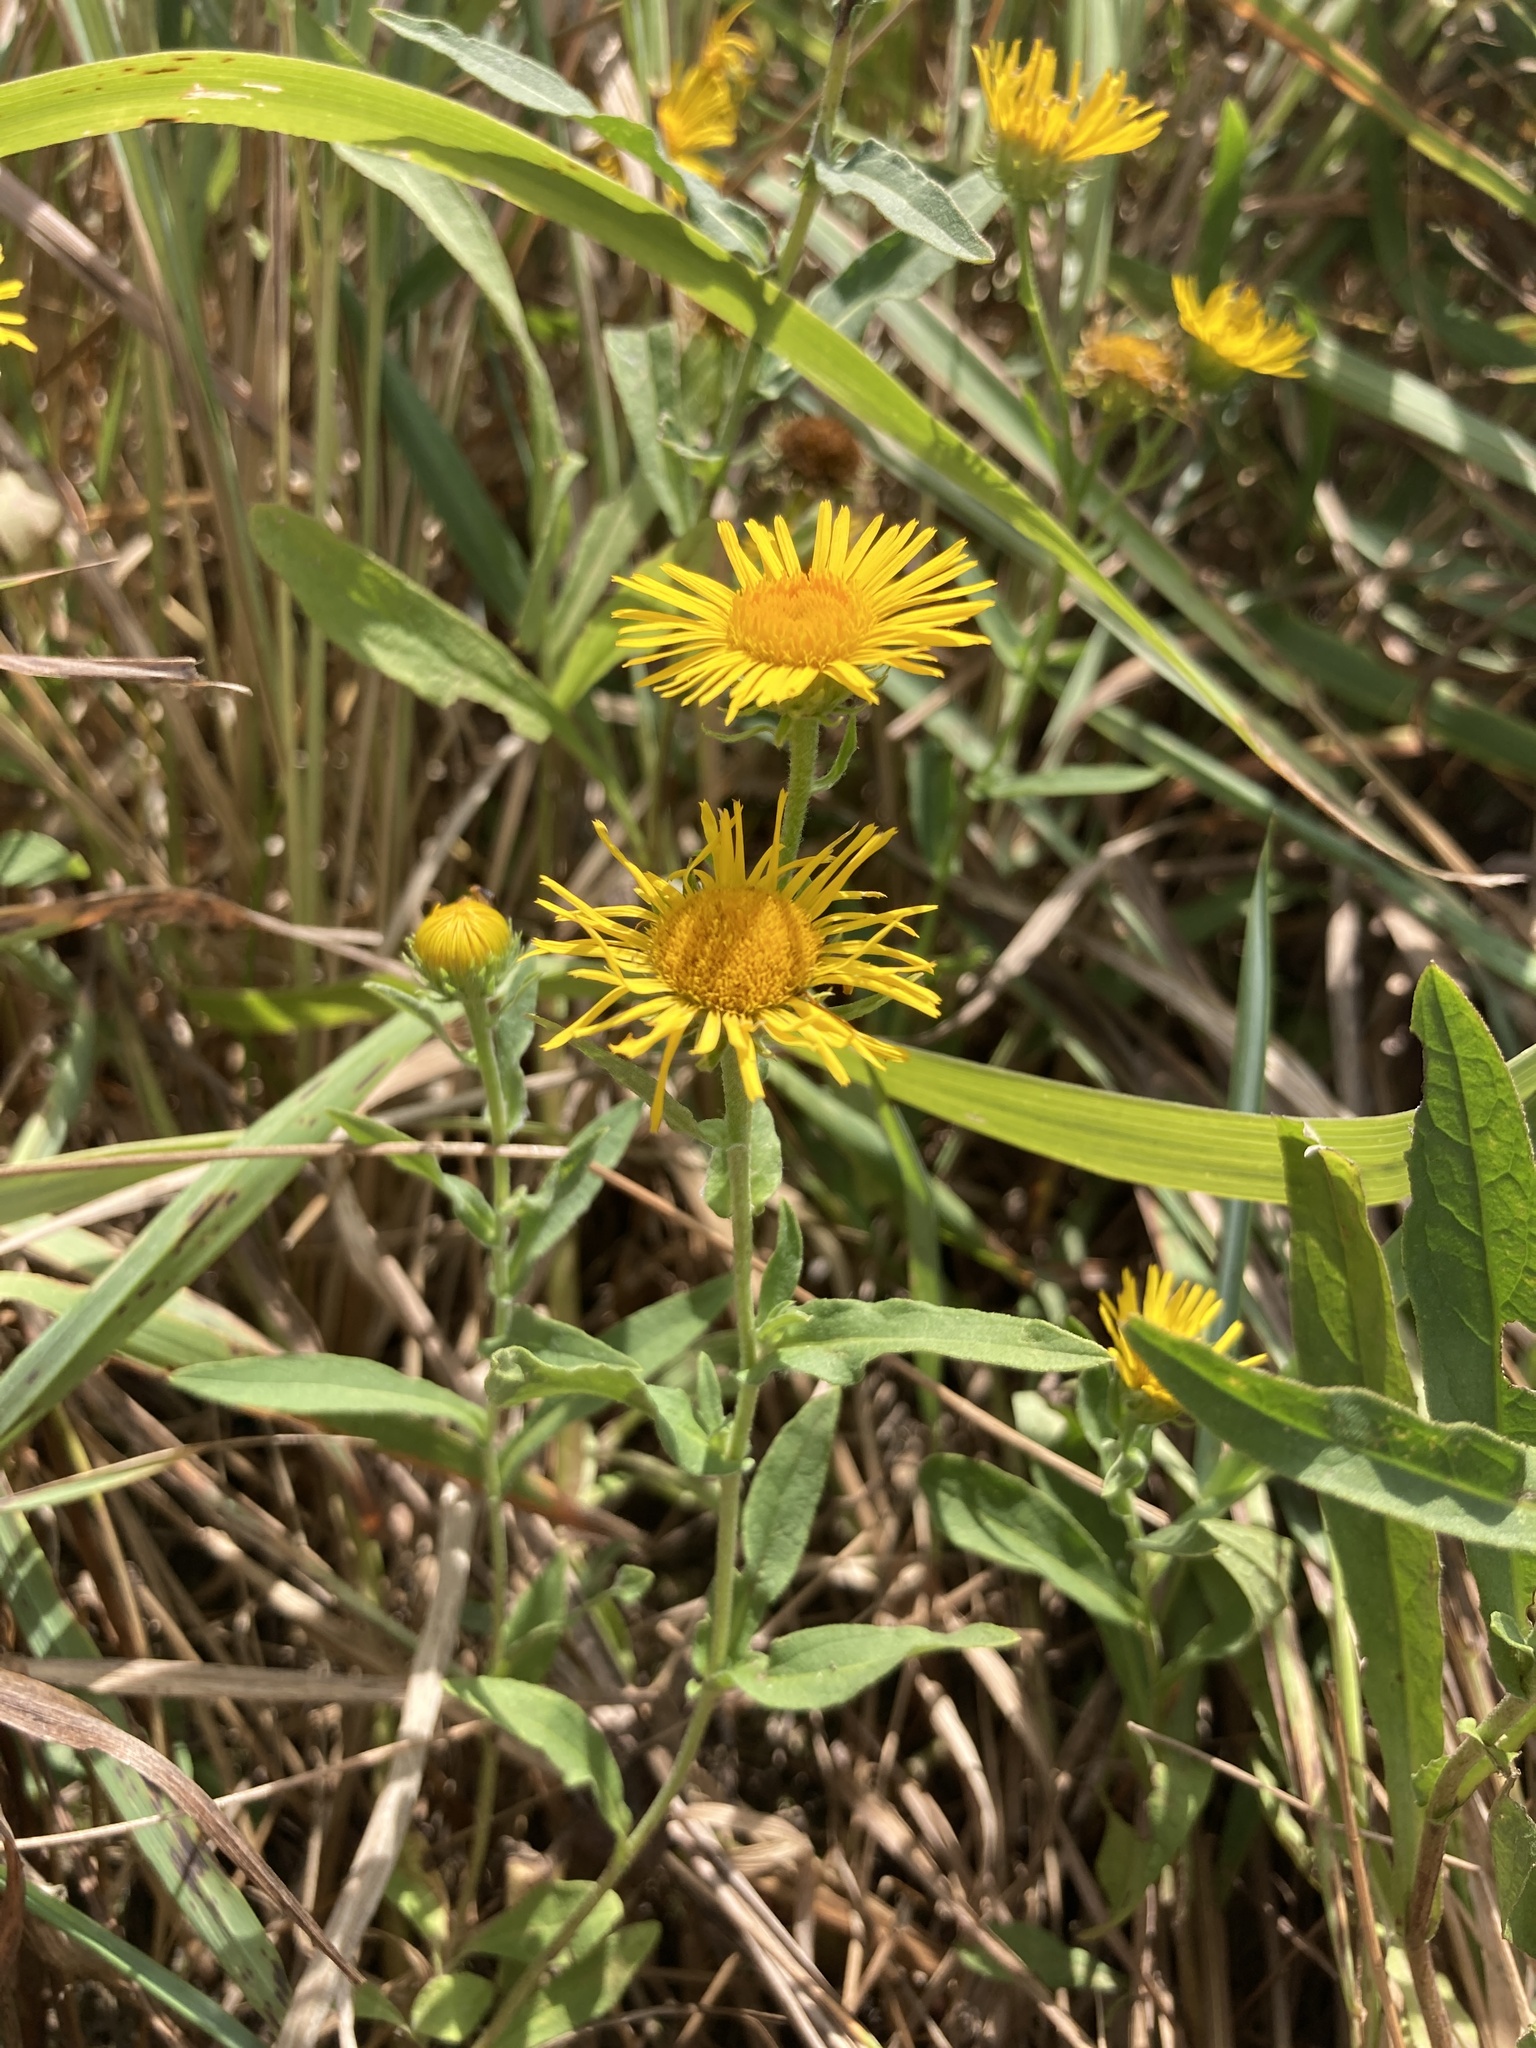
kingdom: Plantae
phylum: Tracheophyta
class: Magnoliopsida
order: Asterales
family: Asteraceae
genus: Pentanema
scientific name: Pentanema britannicum
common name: British elecampane
